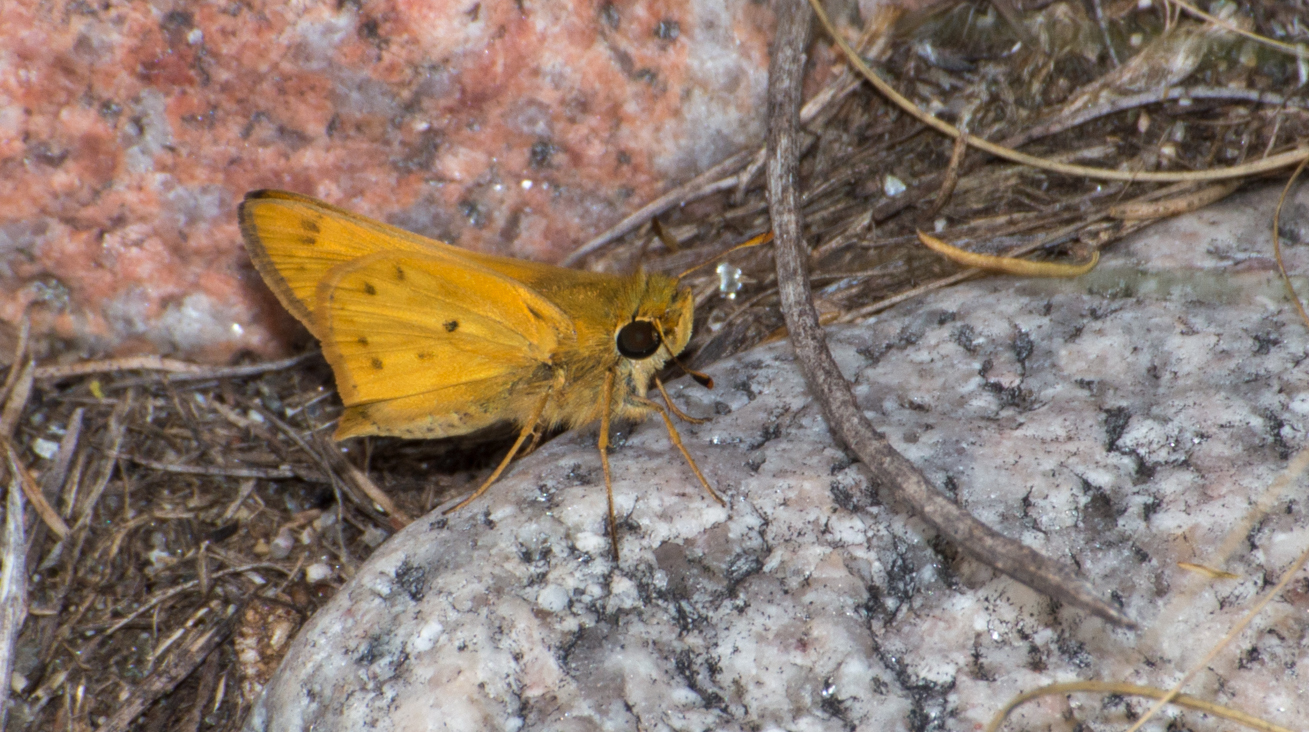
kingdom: Animalia
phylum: Arthropoda
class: Insecta
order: Lepidoptera
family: Hesperiidae
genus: Hylephila
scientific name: Hylephila phyleus
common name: Fiery skipper
